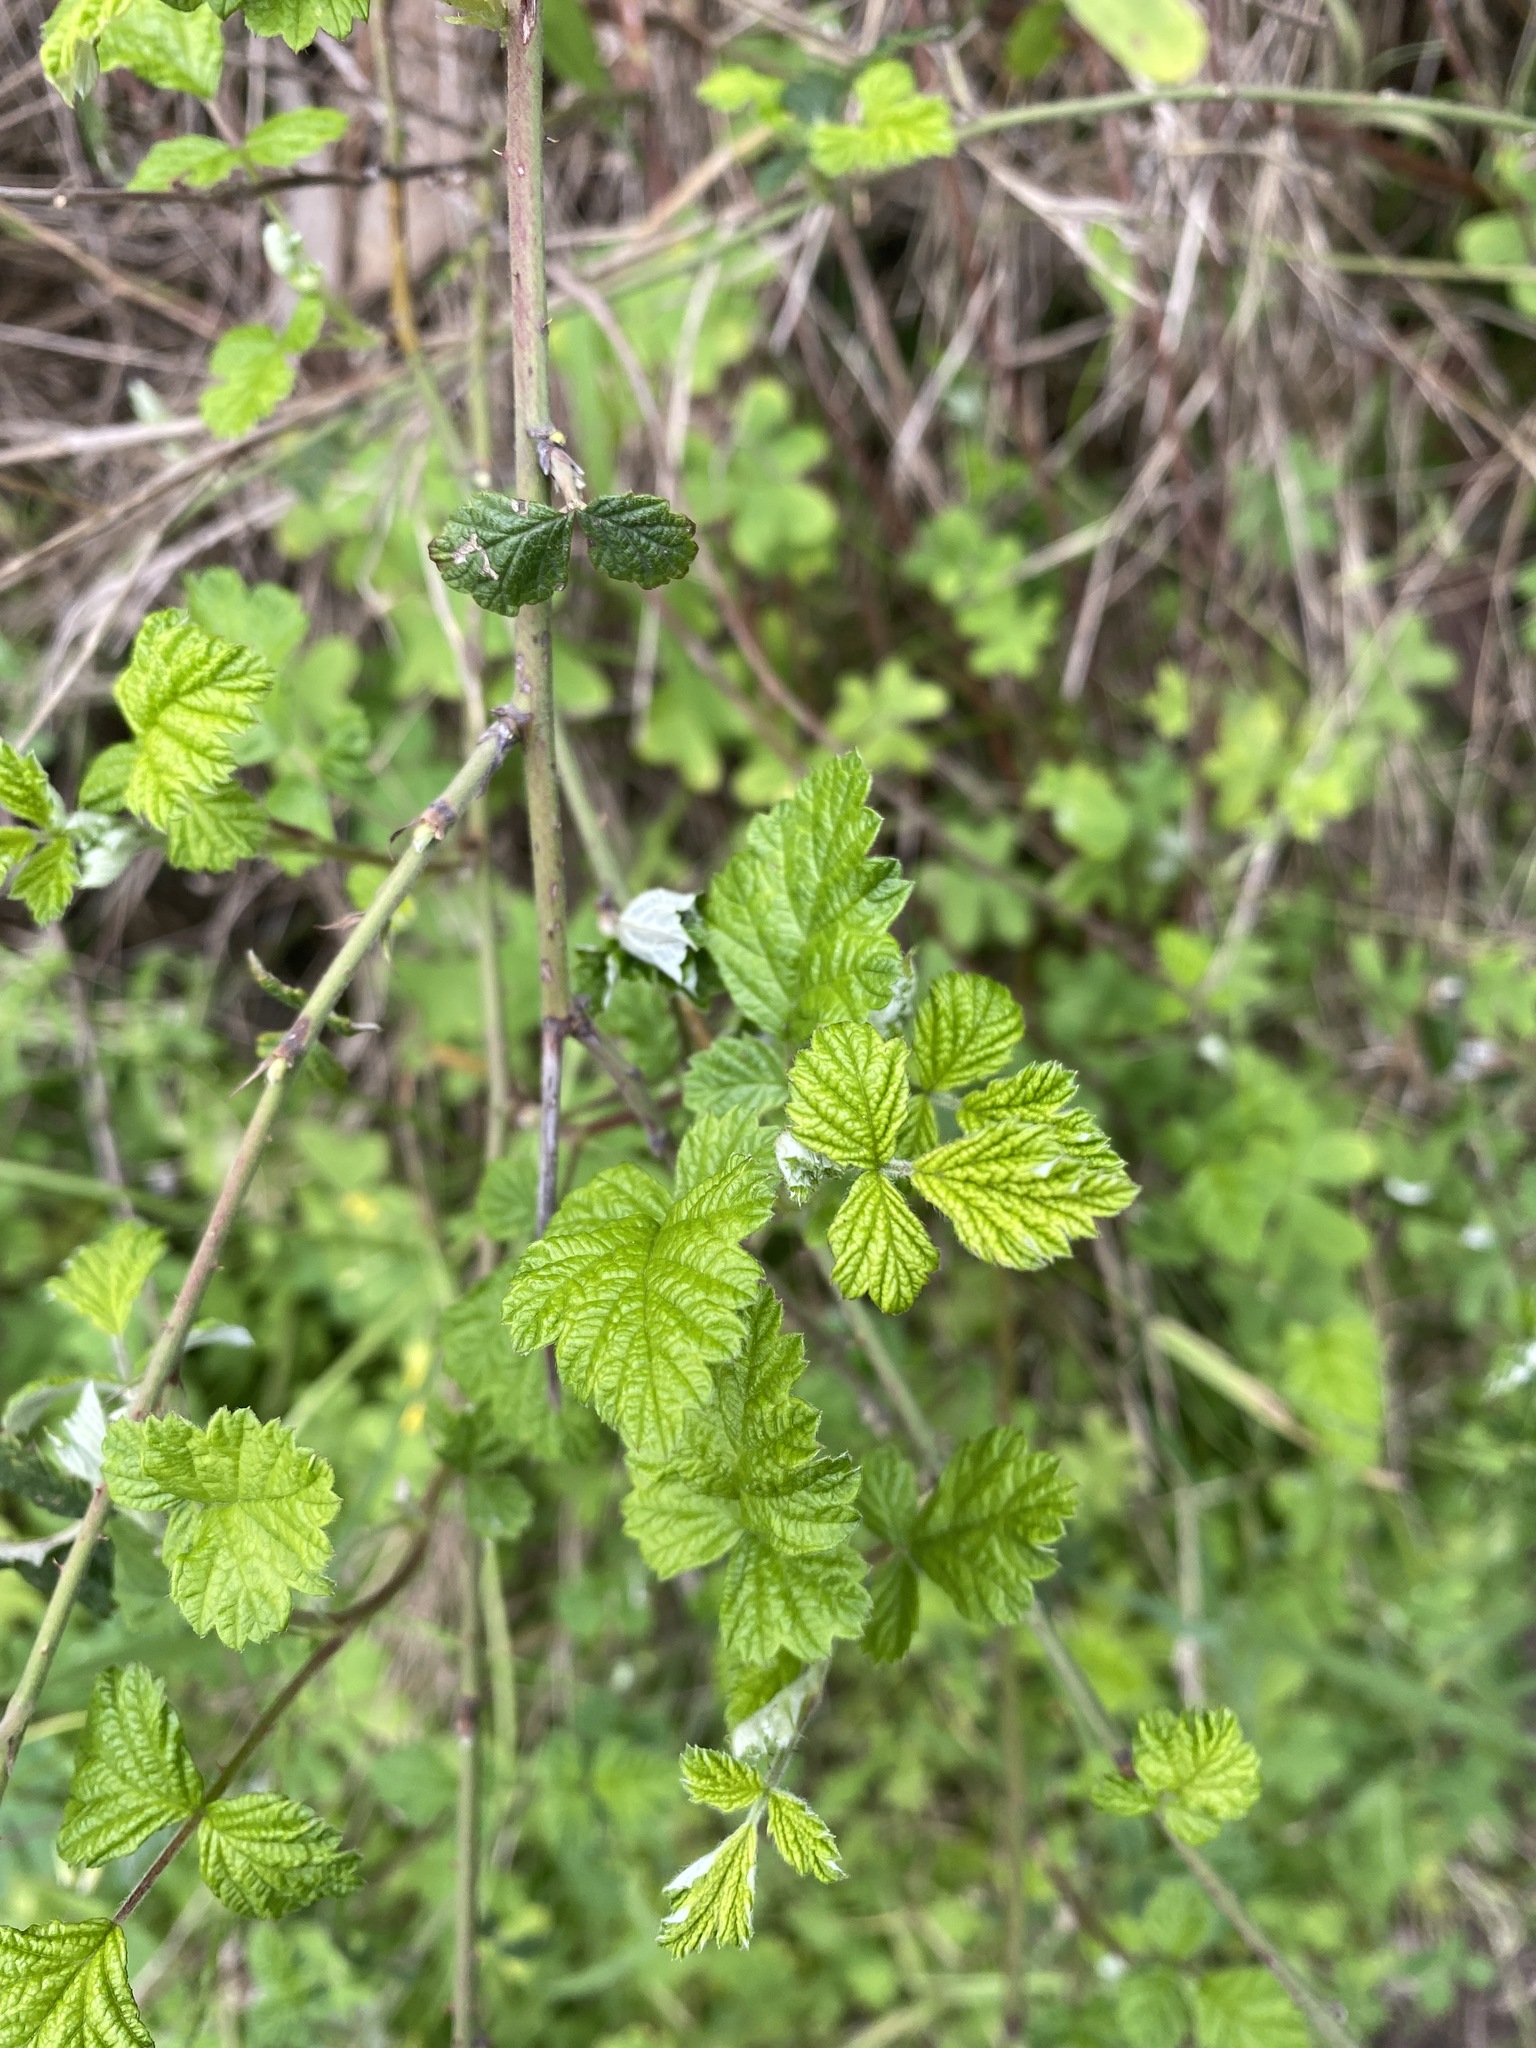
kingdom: Plantae
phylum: Tracheophyta
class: Magnoliopsida
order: Rosales
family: Rosaceae
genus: Rubus
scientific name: Rubus parvifolius
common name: Threeleaf blackberry
